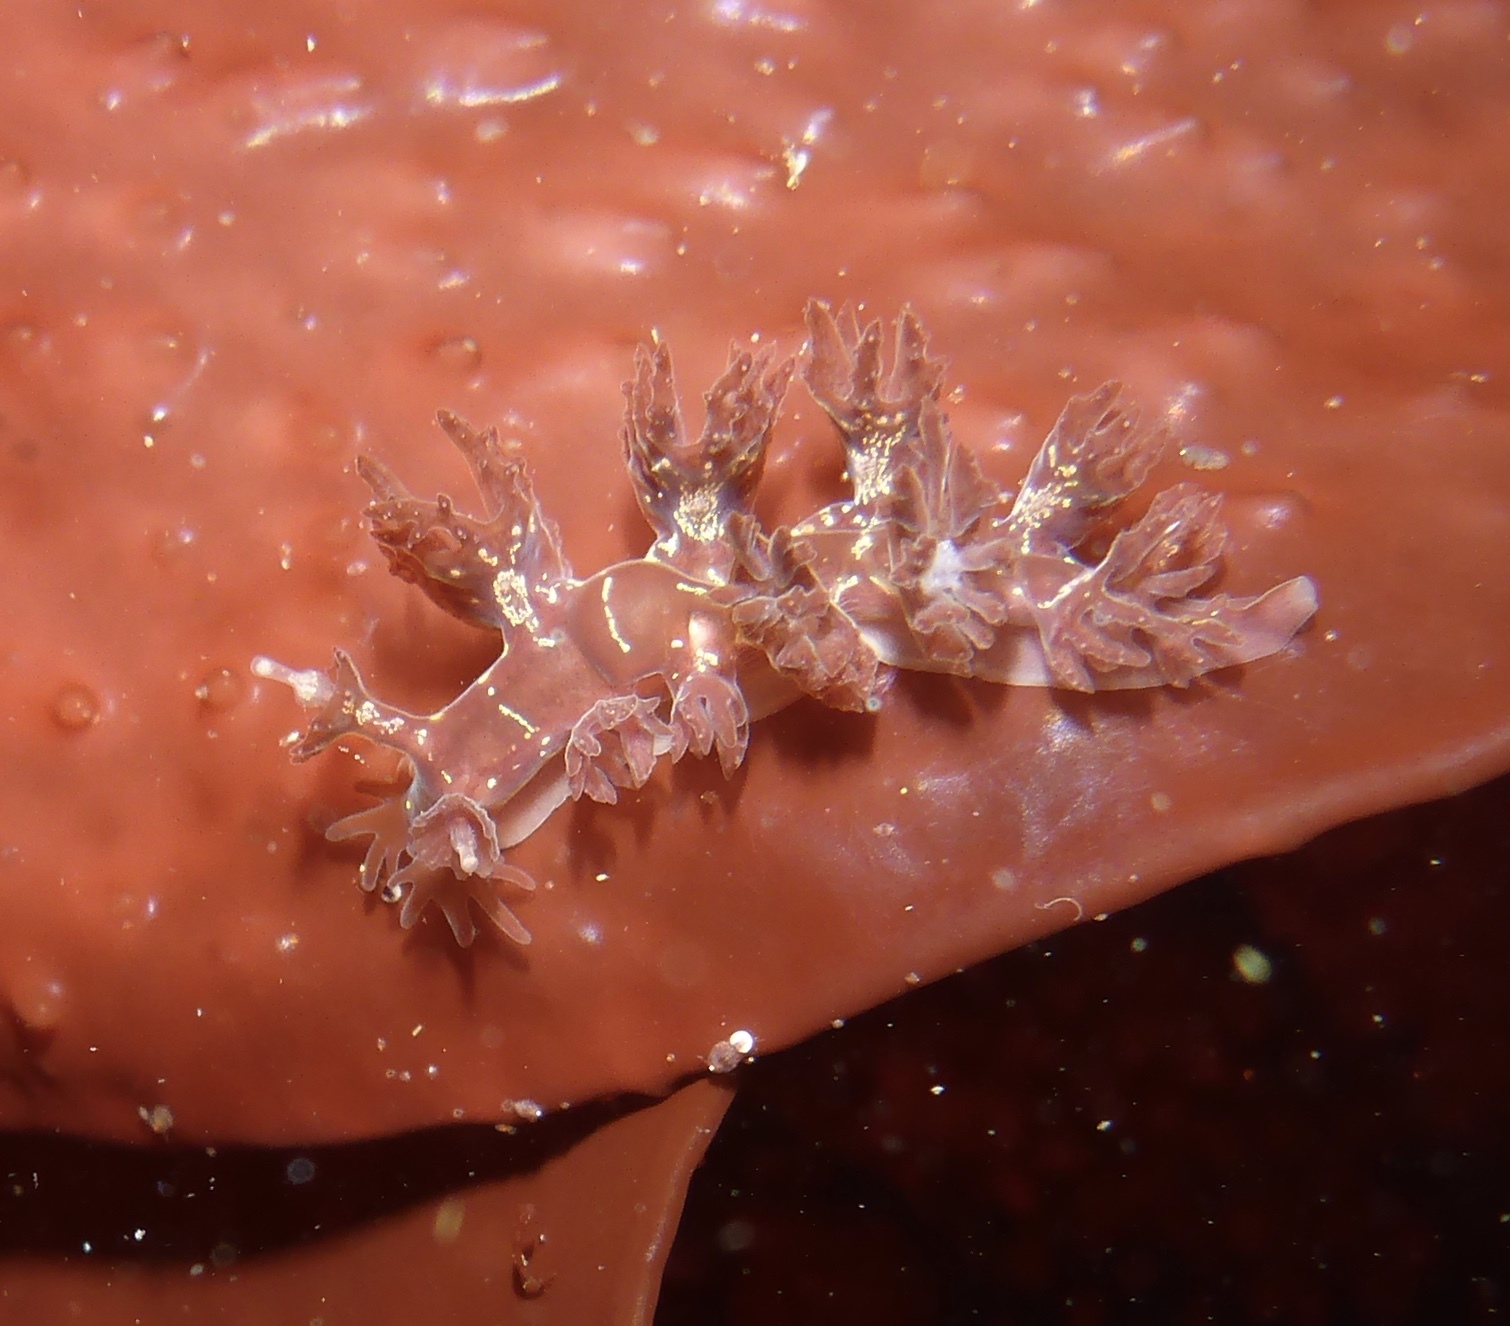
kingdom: Animalia
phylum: Mollusca
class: Gastropoda
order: Nudibranchia
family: Hancockiidae
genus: Hancockia
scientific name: Hancockia californica
